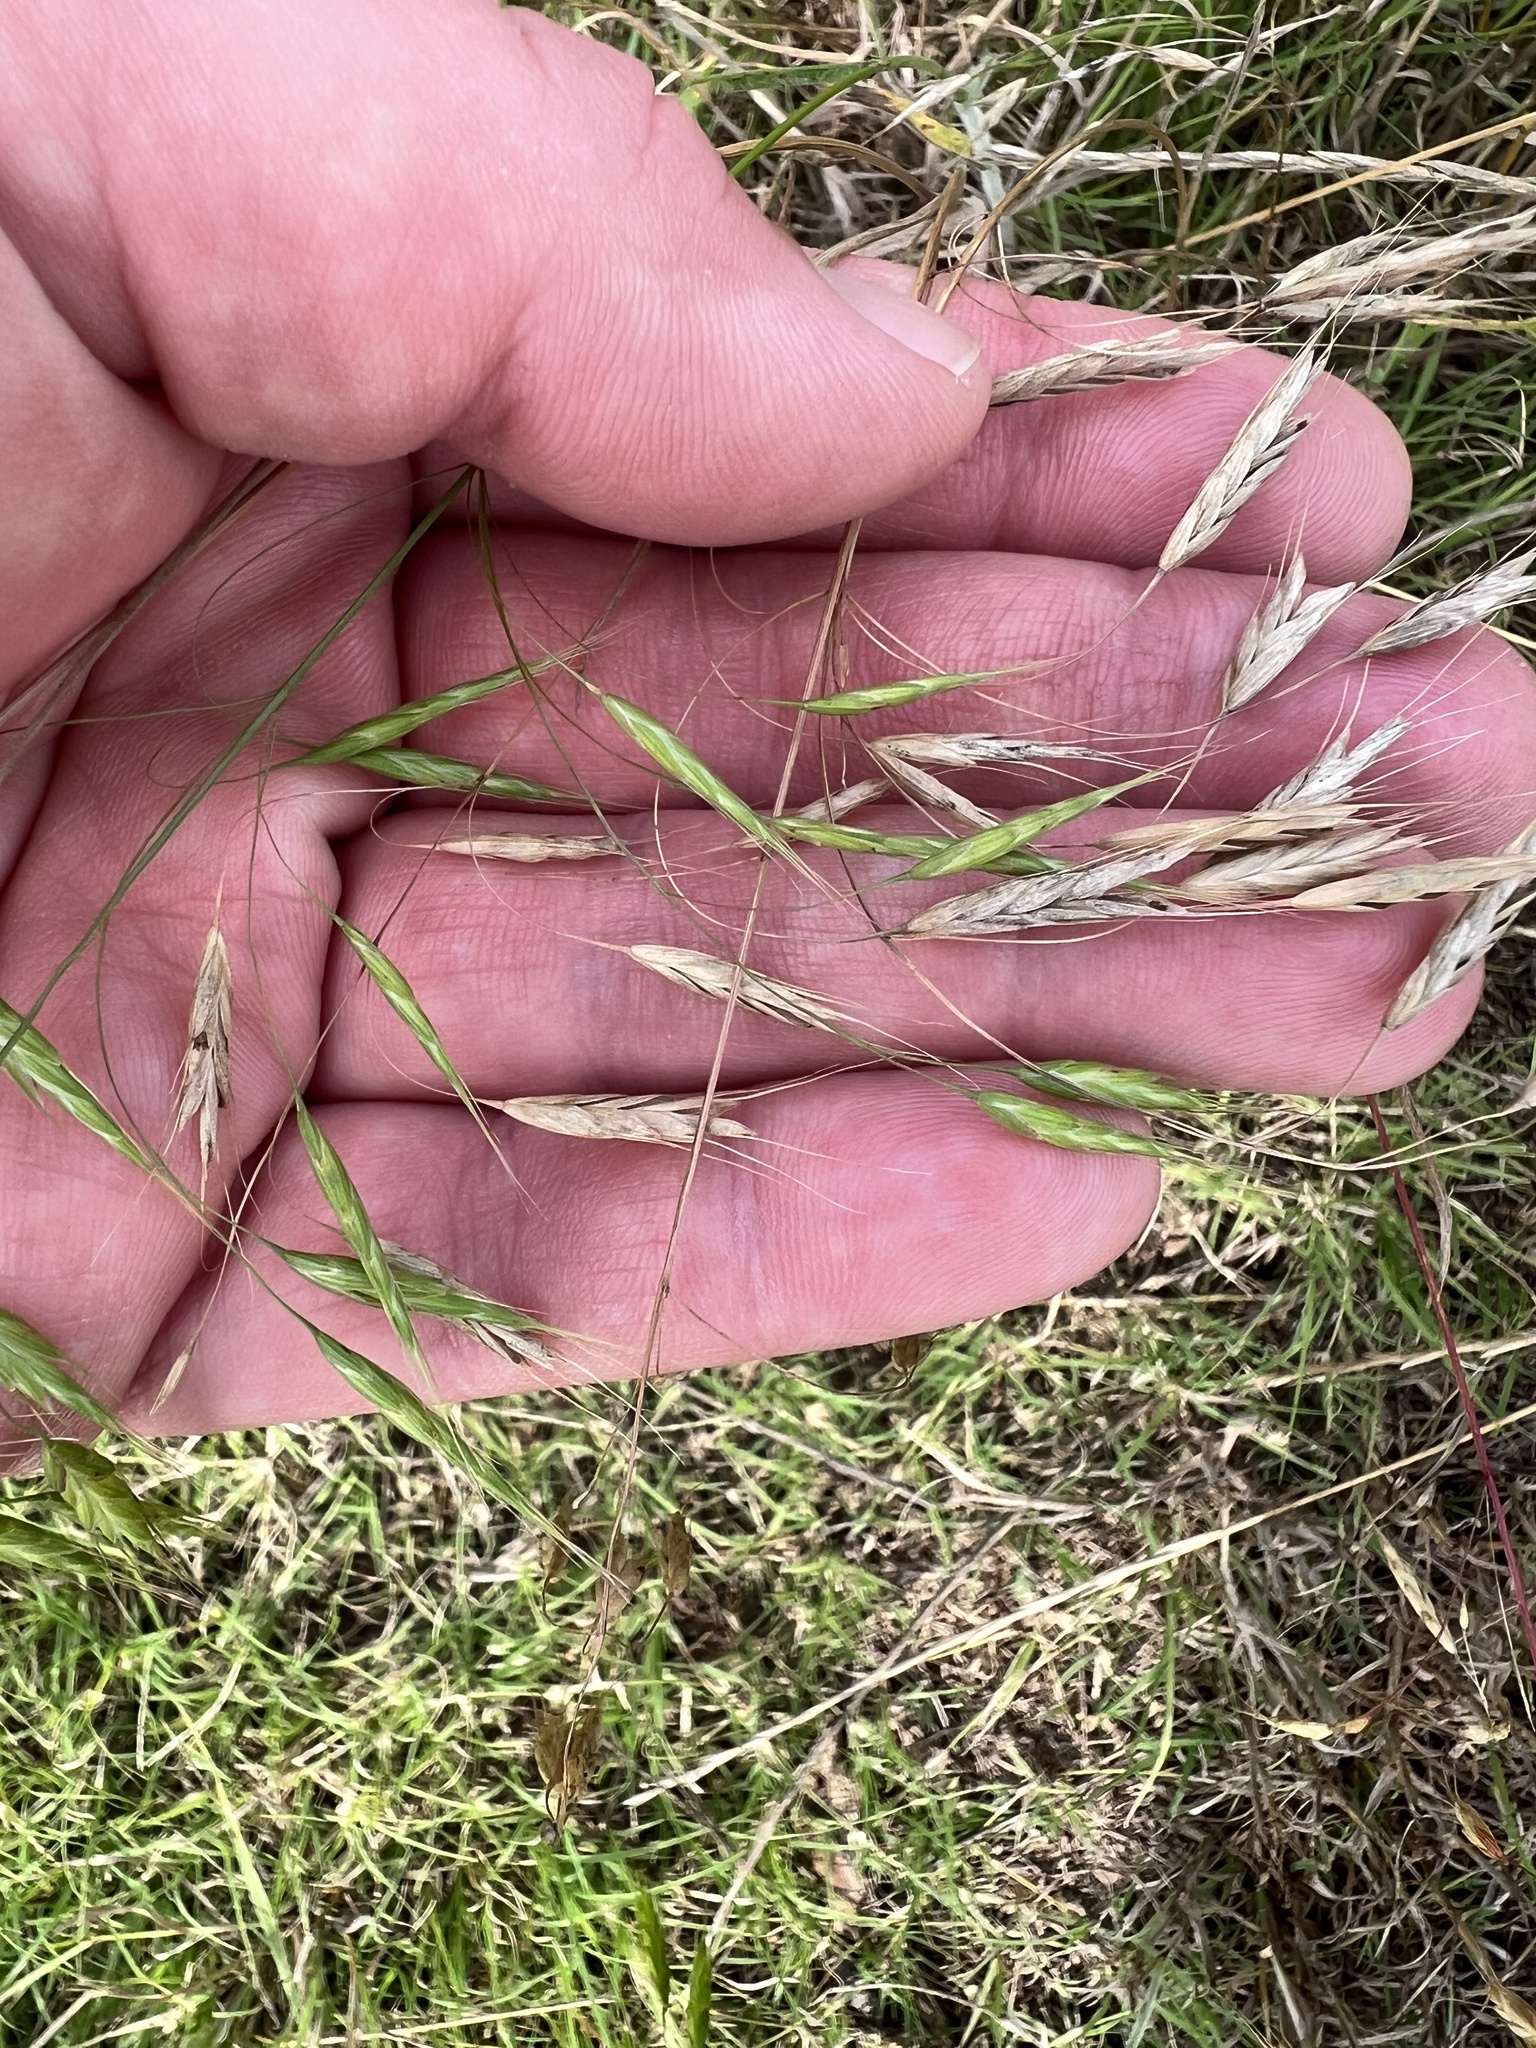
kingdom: Plantae
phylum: Tracheophyta
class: Liliopsida
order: Poales
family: Poaceae
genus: Bromus
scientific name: Bromus japonicus
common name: Japanese brome
